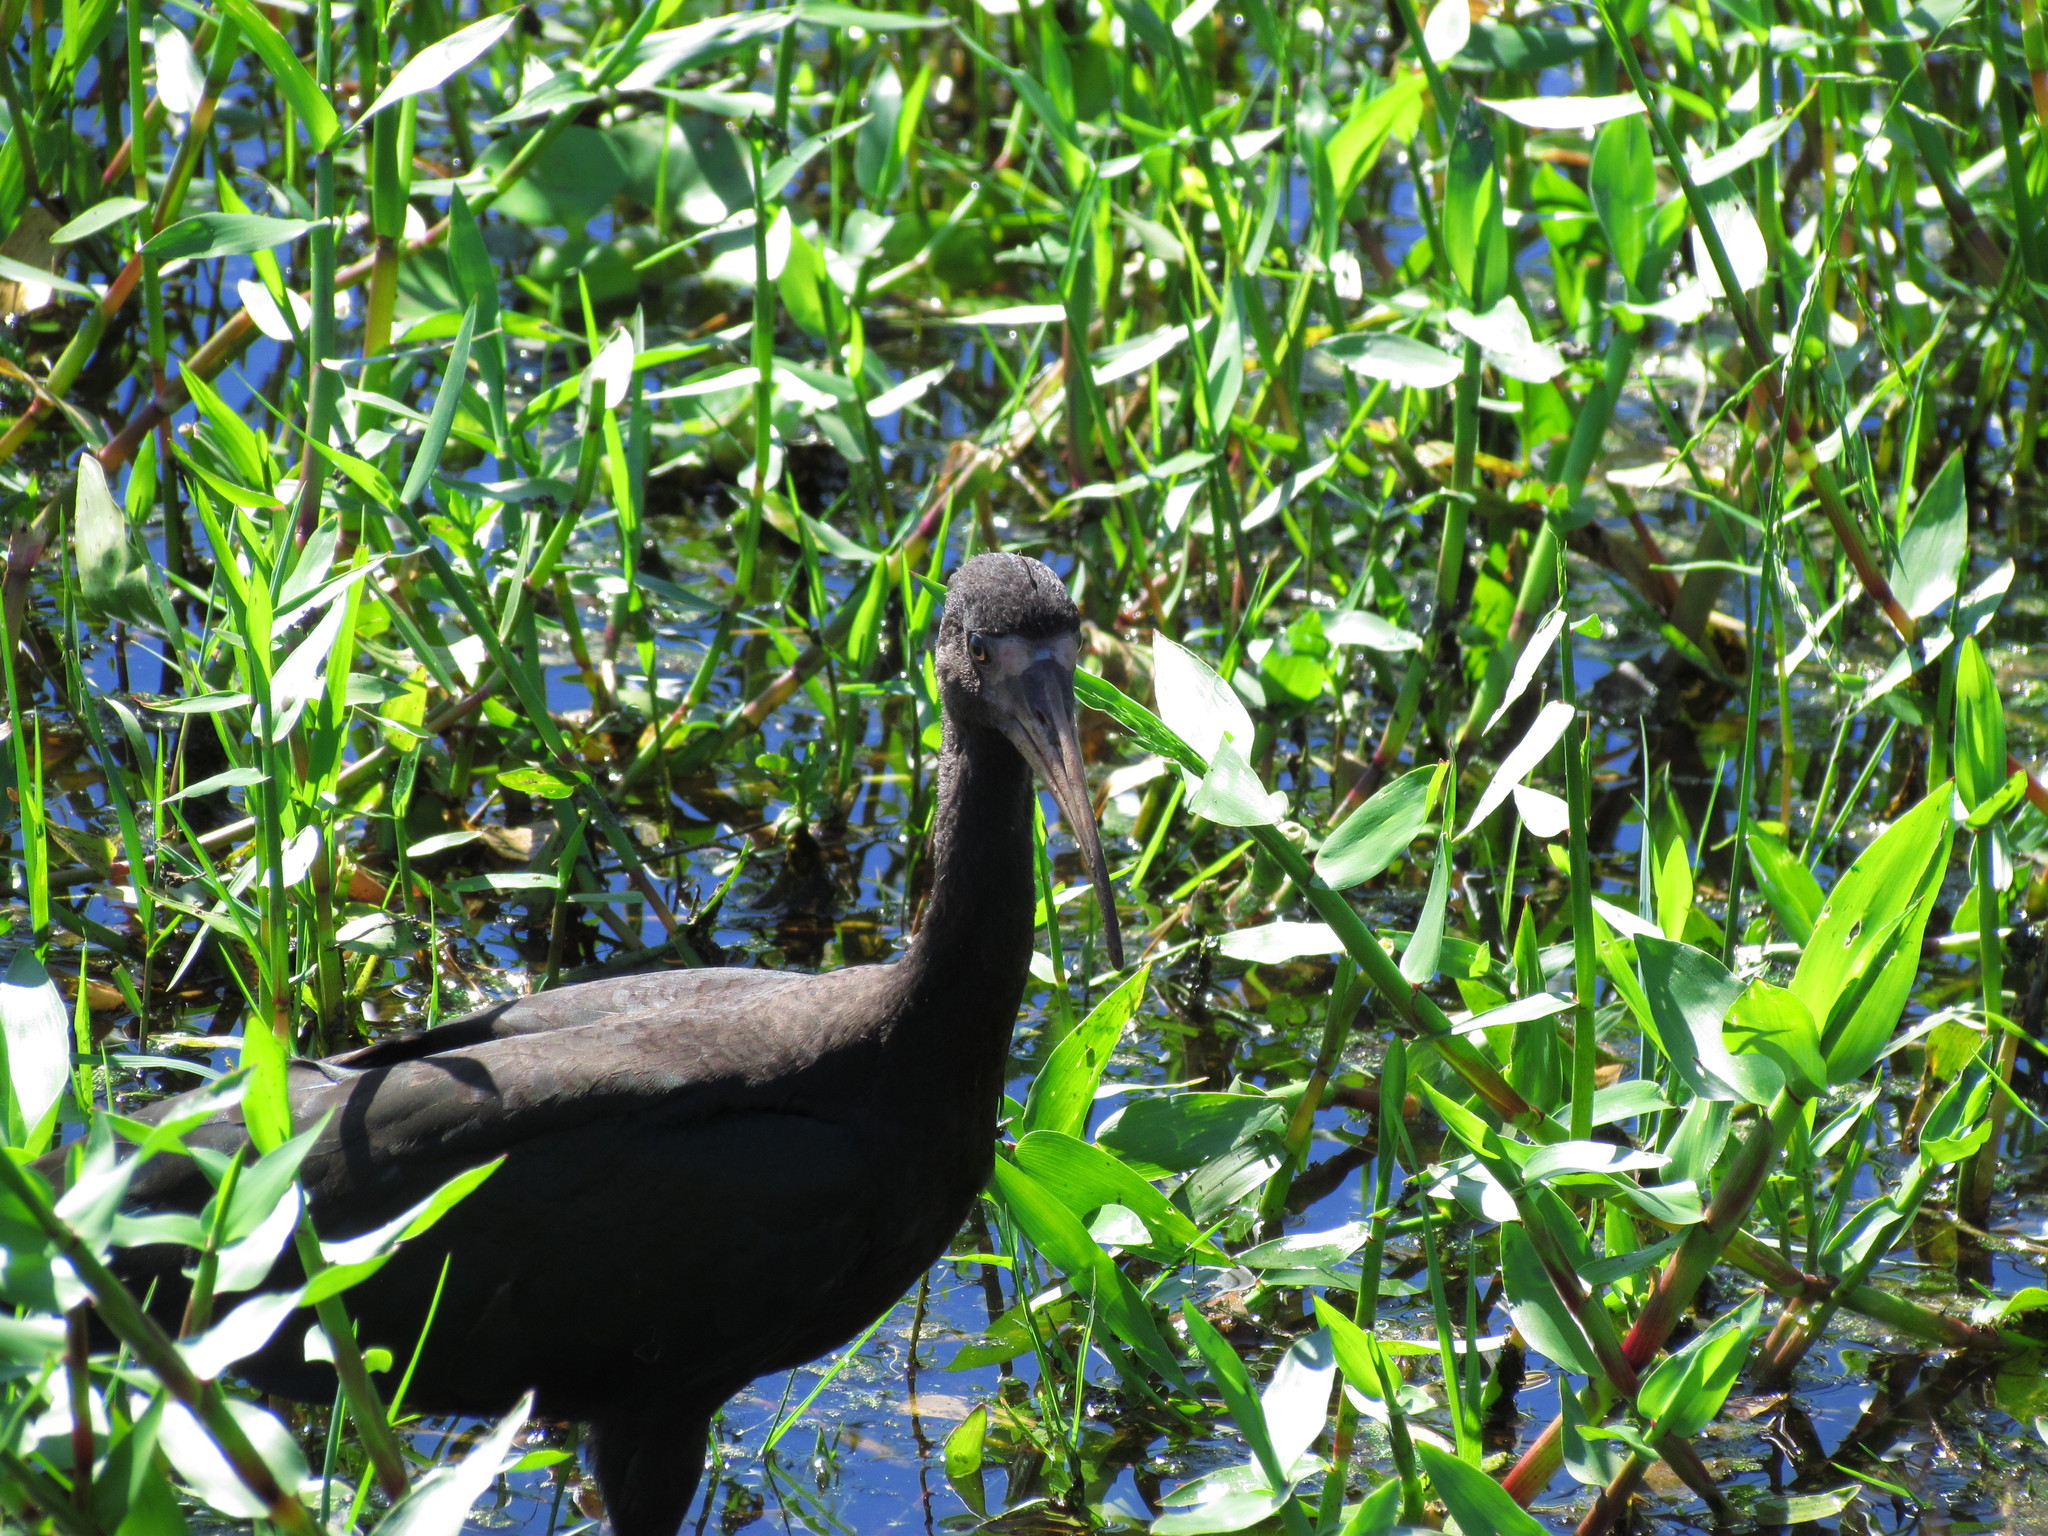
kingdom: Animalia
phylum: Chordata
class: Aves
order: Pelecaniformes
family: Threskiornithidae
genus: Phimosus
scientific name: Phimosus infuscatus
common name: Bare-faced ibis
